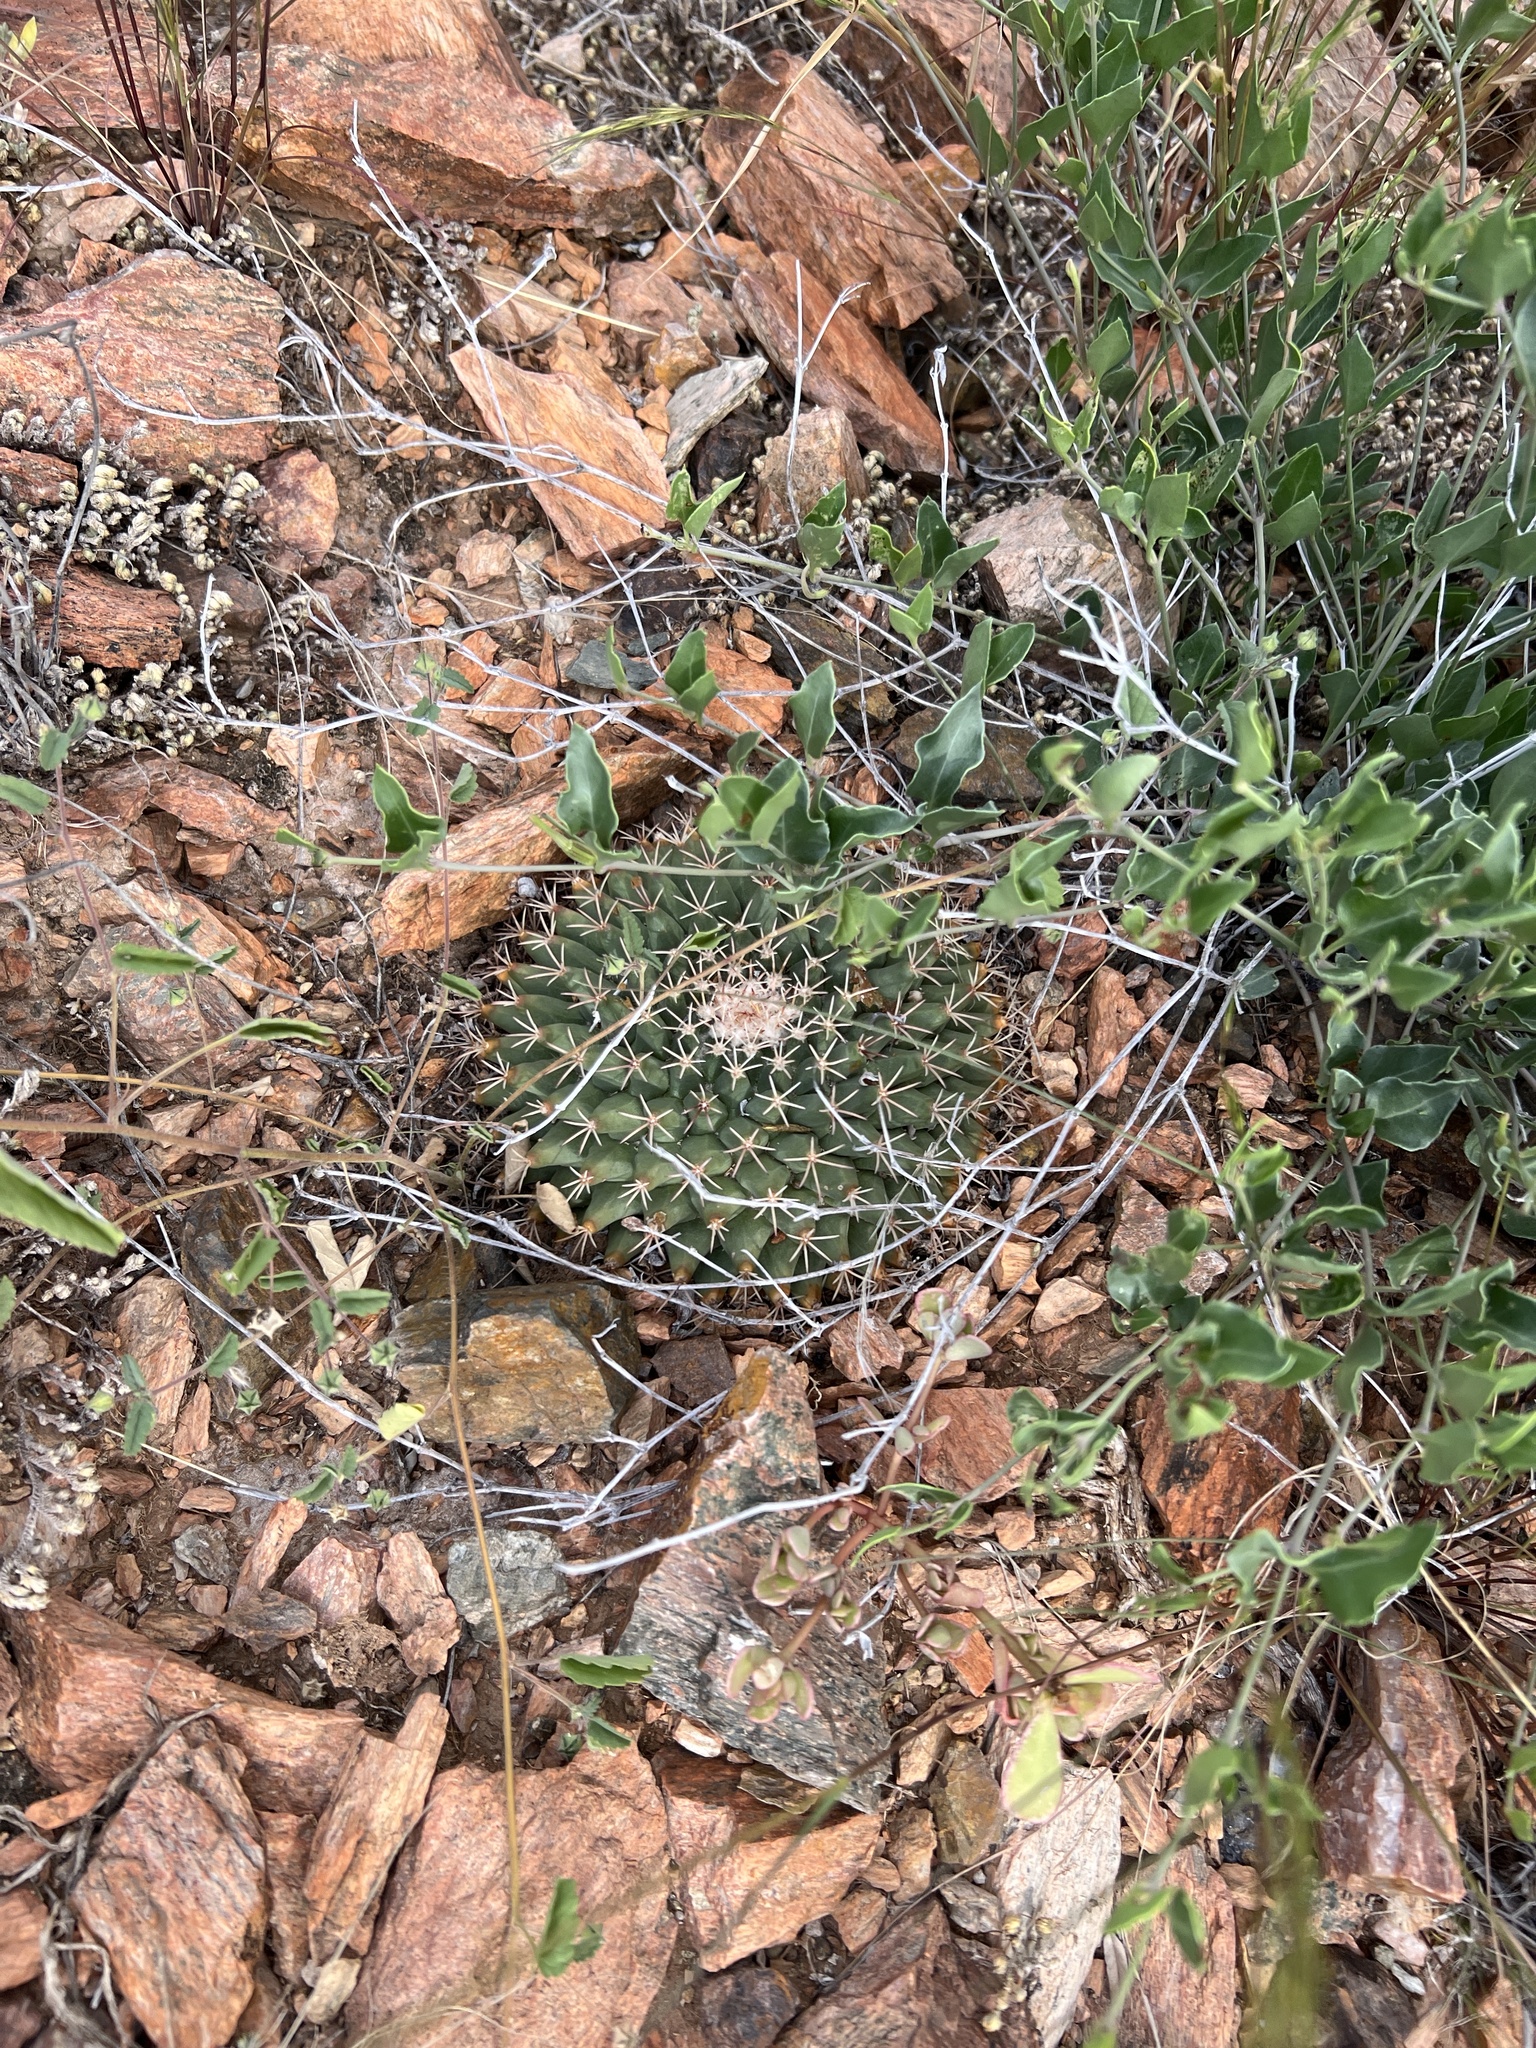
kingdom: Plantae
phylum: Tracheophyta
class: Magnoliopsida
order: Caryophyllales
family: Cactaceae
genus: Mammillaria
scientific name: Mammillaria heyderi
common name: Little nipple cactus
